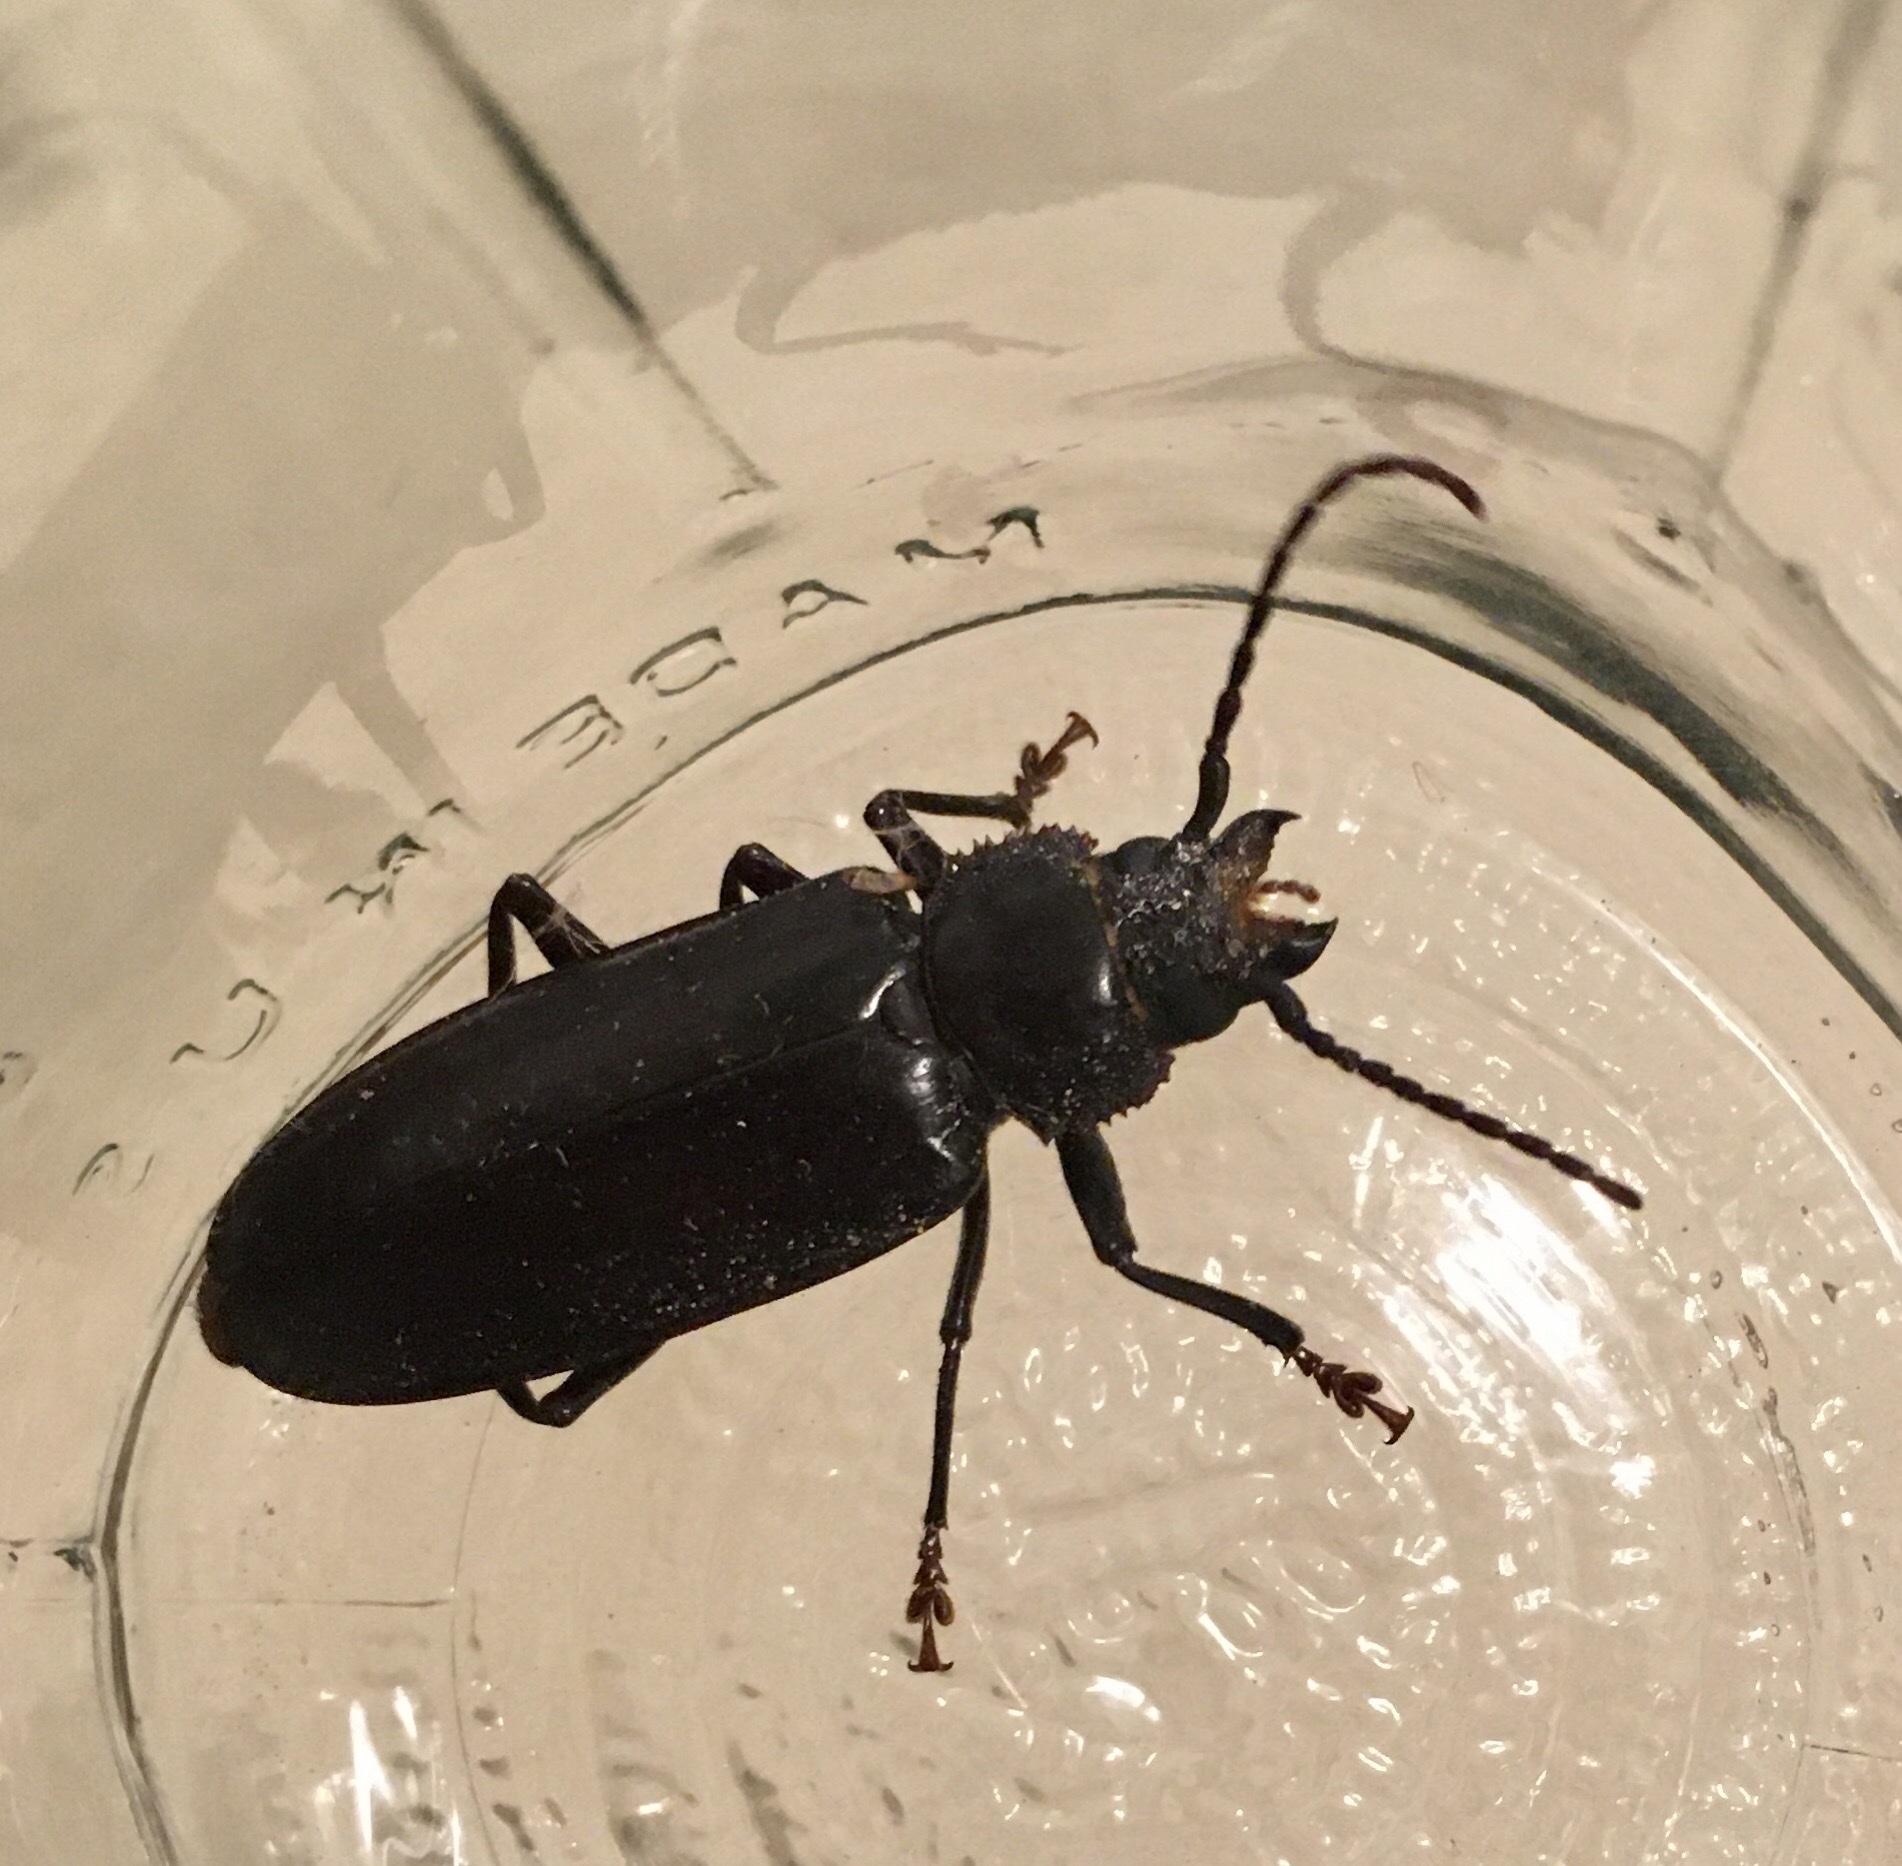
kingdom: Animalia
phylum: Arthropoda
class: Insecta
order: Coleoptera
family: Cerambycidae
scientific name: Cerambycidae
